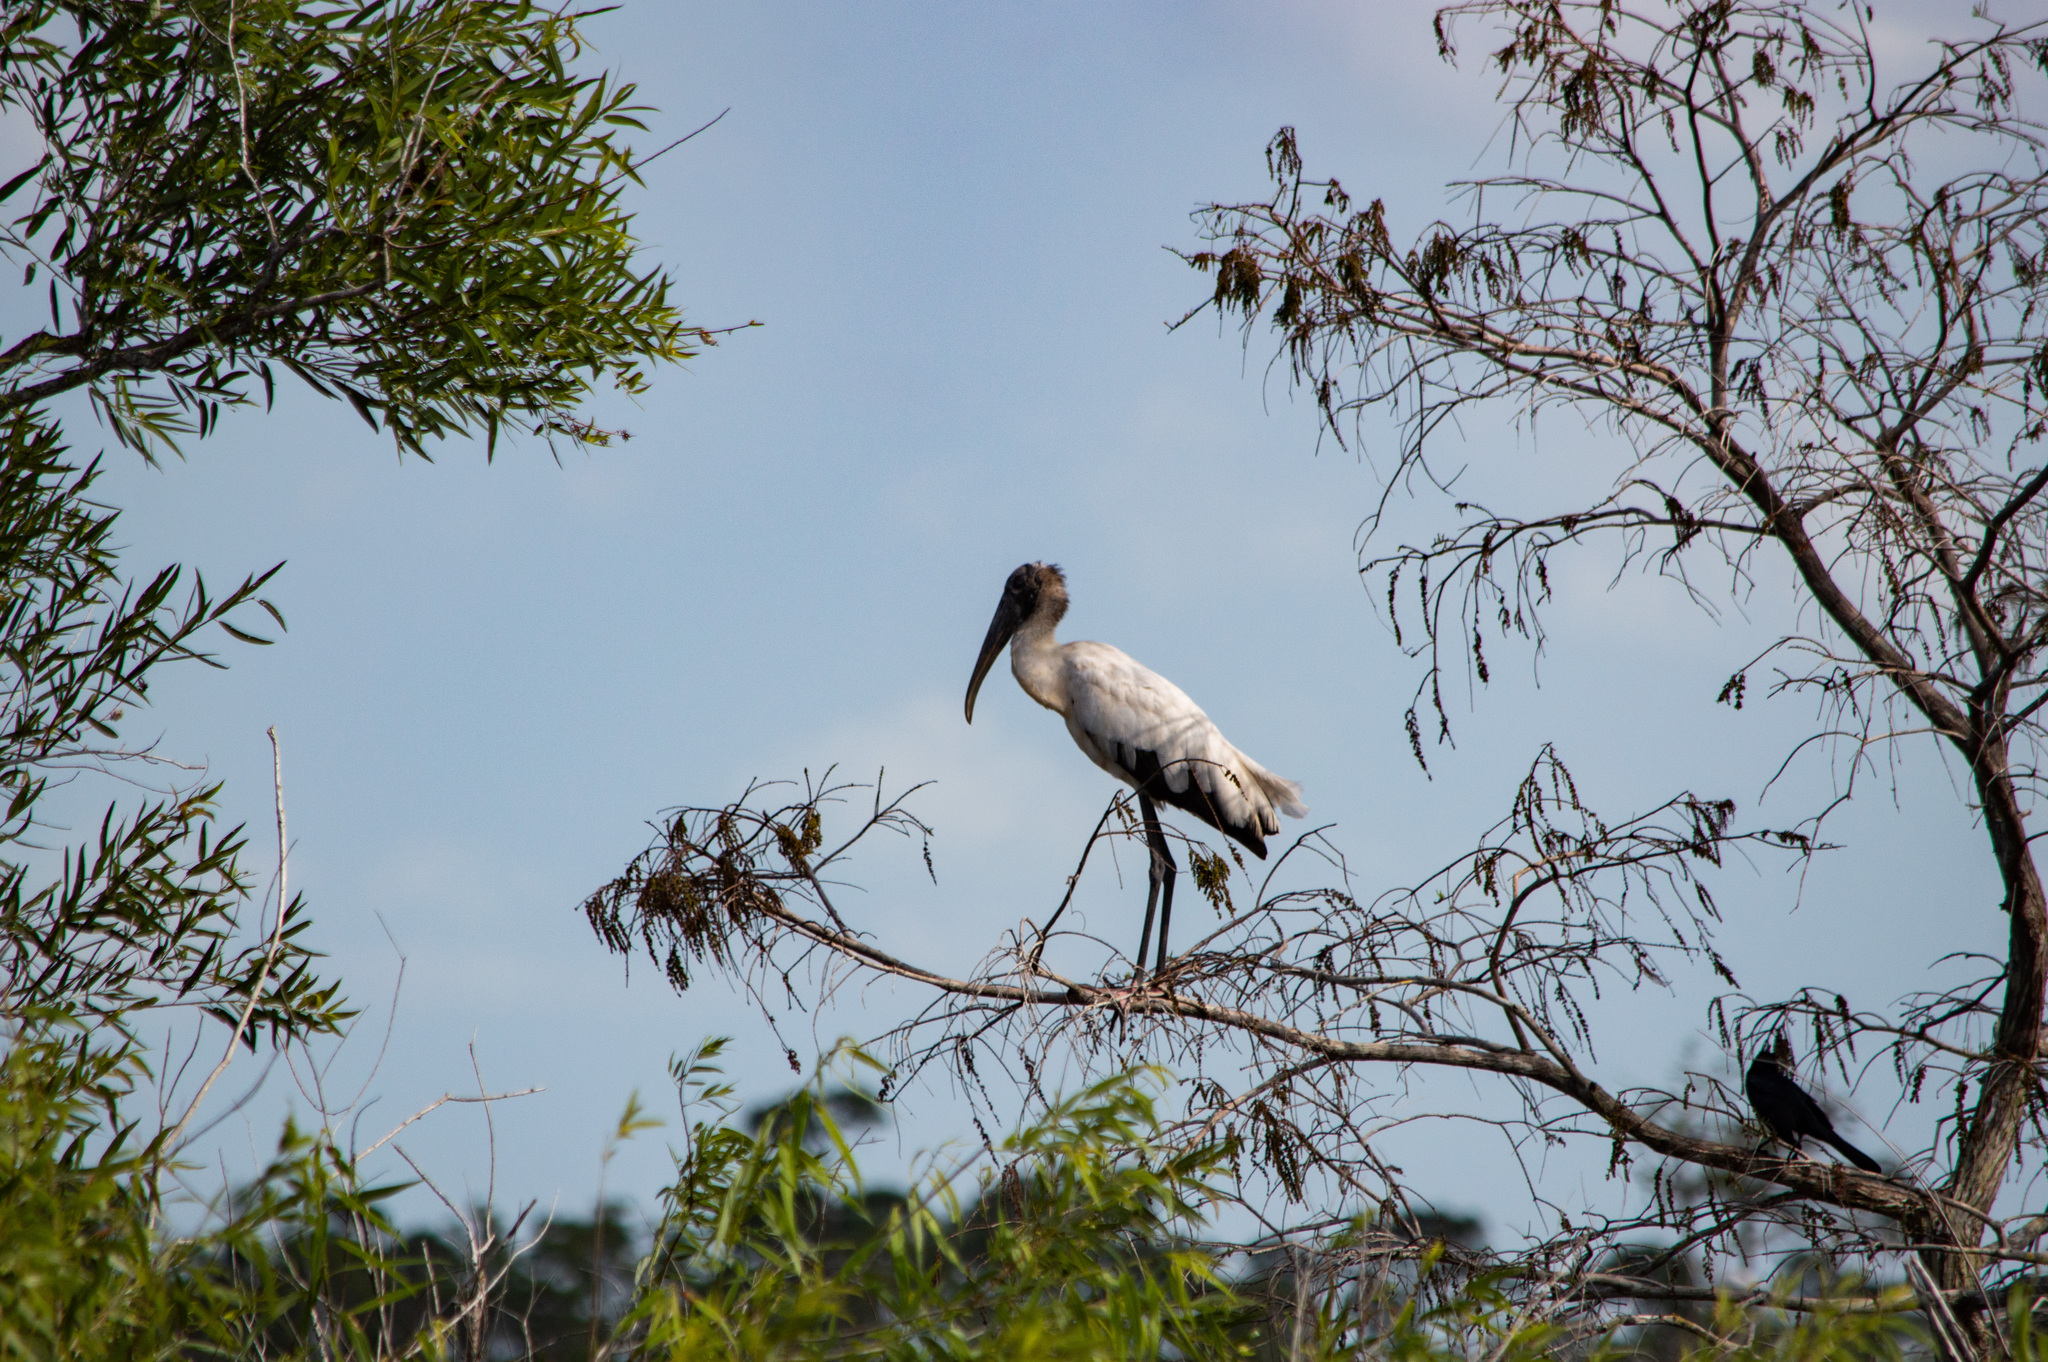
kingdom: Animalia
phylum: Chordata
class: Aves
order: Ciconiiformes
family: Ciconiidae
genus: Mycteria
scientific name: Mycteria americana
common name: Wood stork
